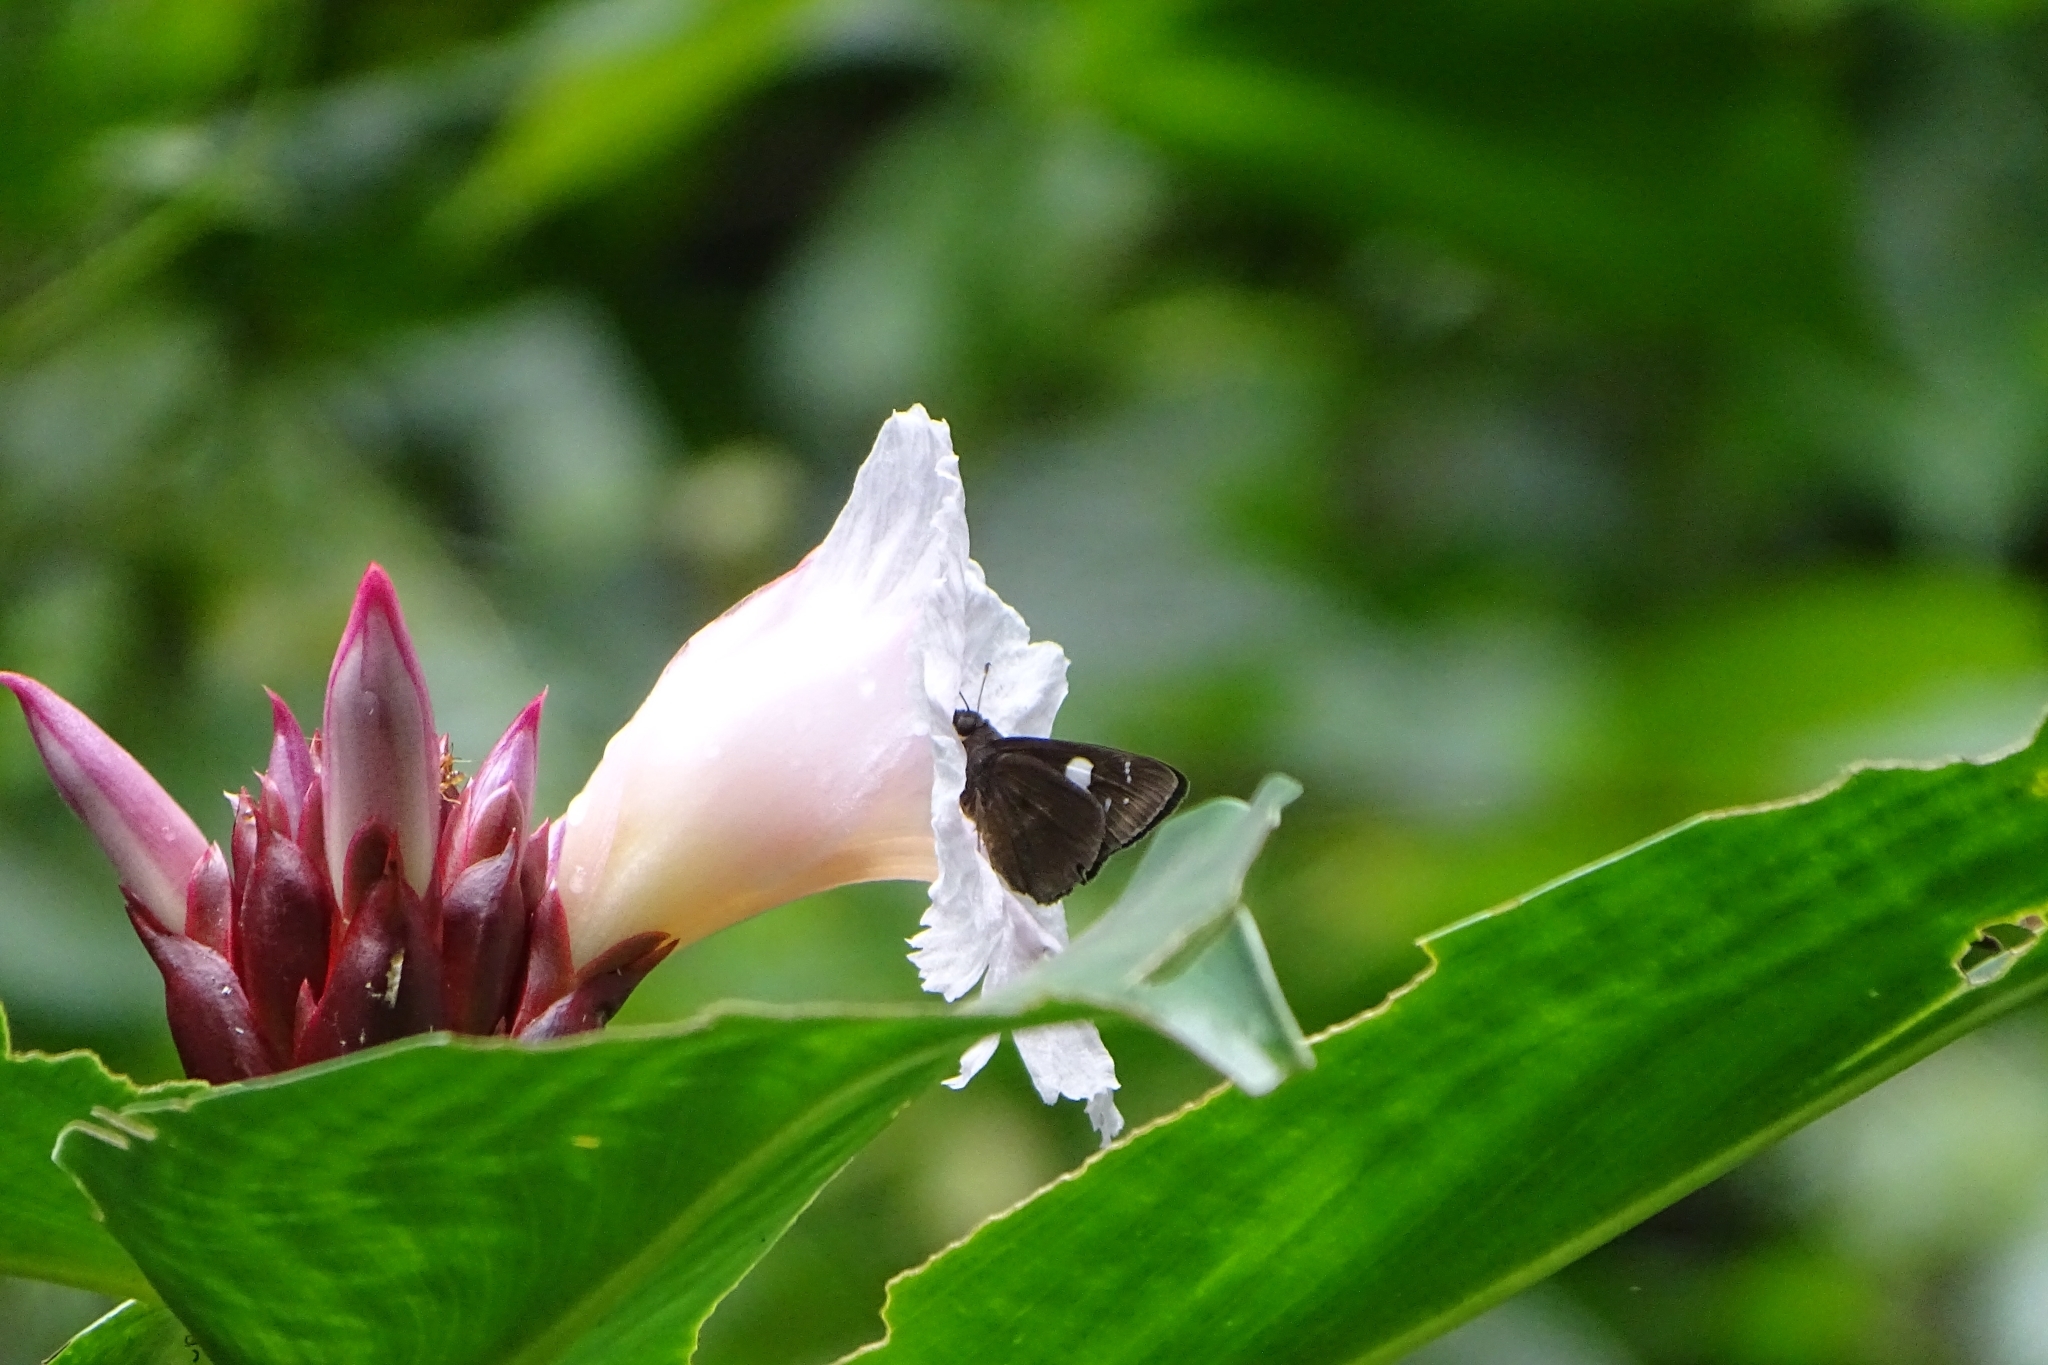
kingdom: Plantae
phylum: Tracheophyta
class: Liliopsida
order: Zingiberales
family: Costaceae
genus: Hellenia
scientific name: Hellenia speciosa
